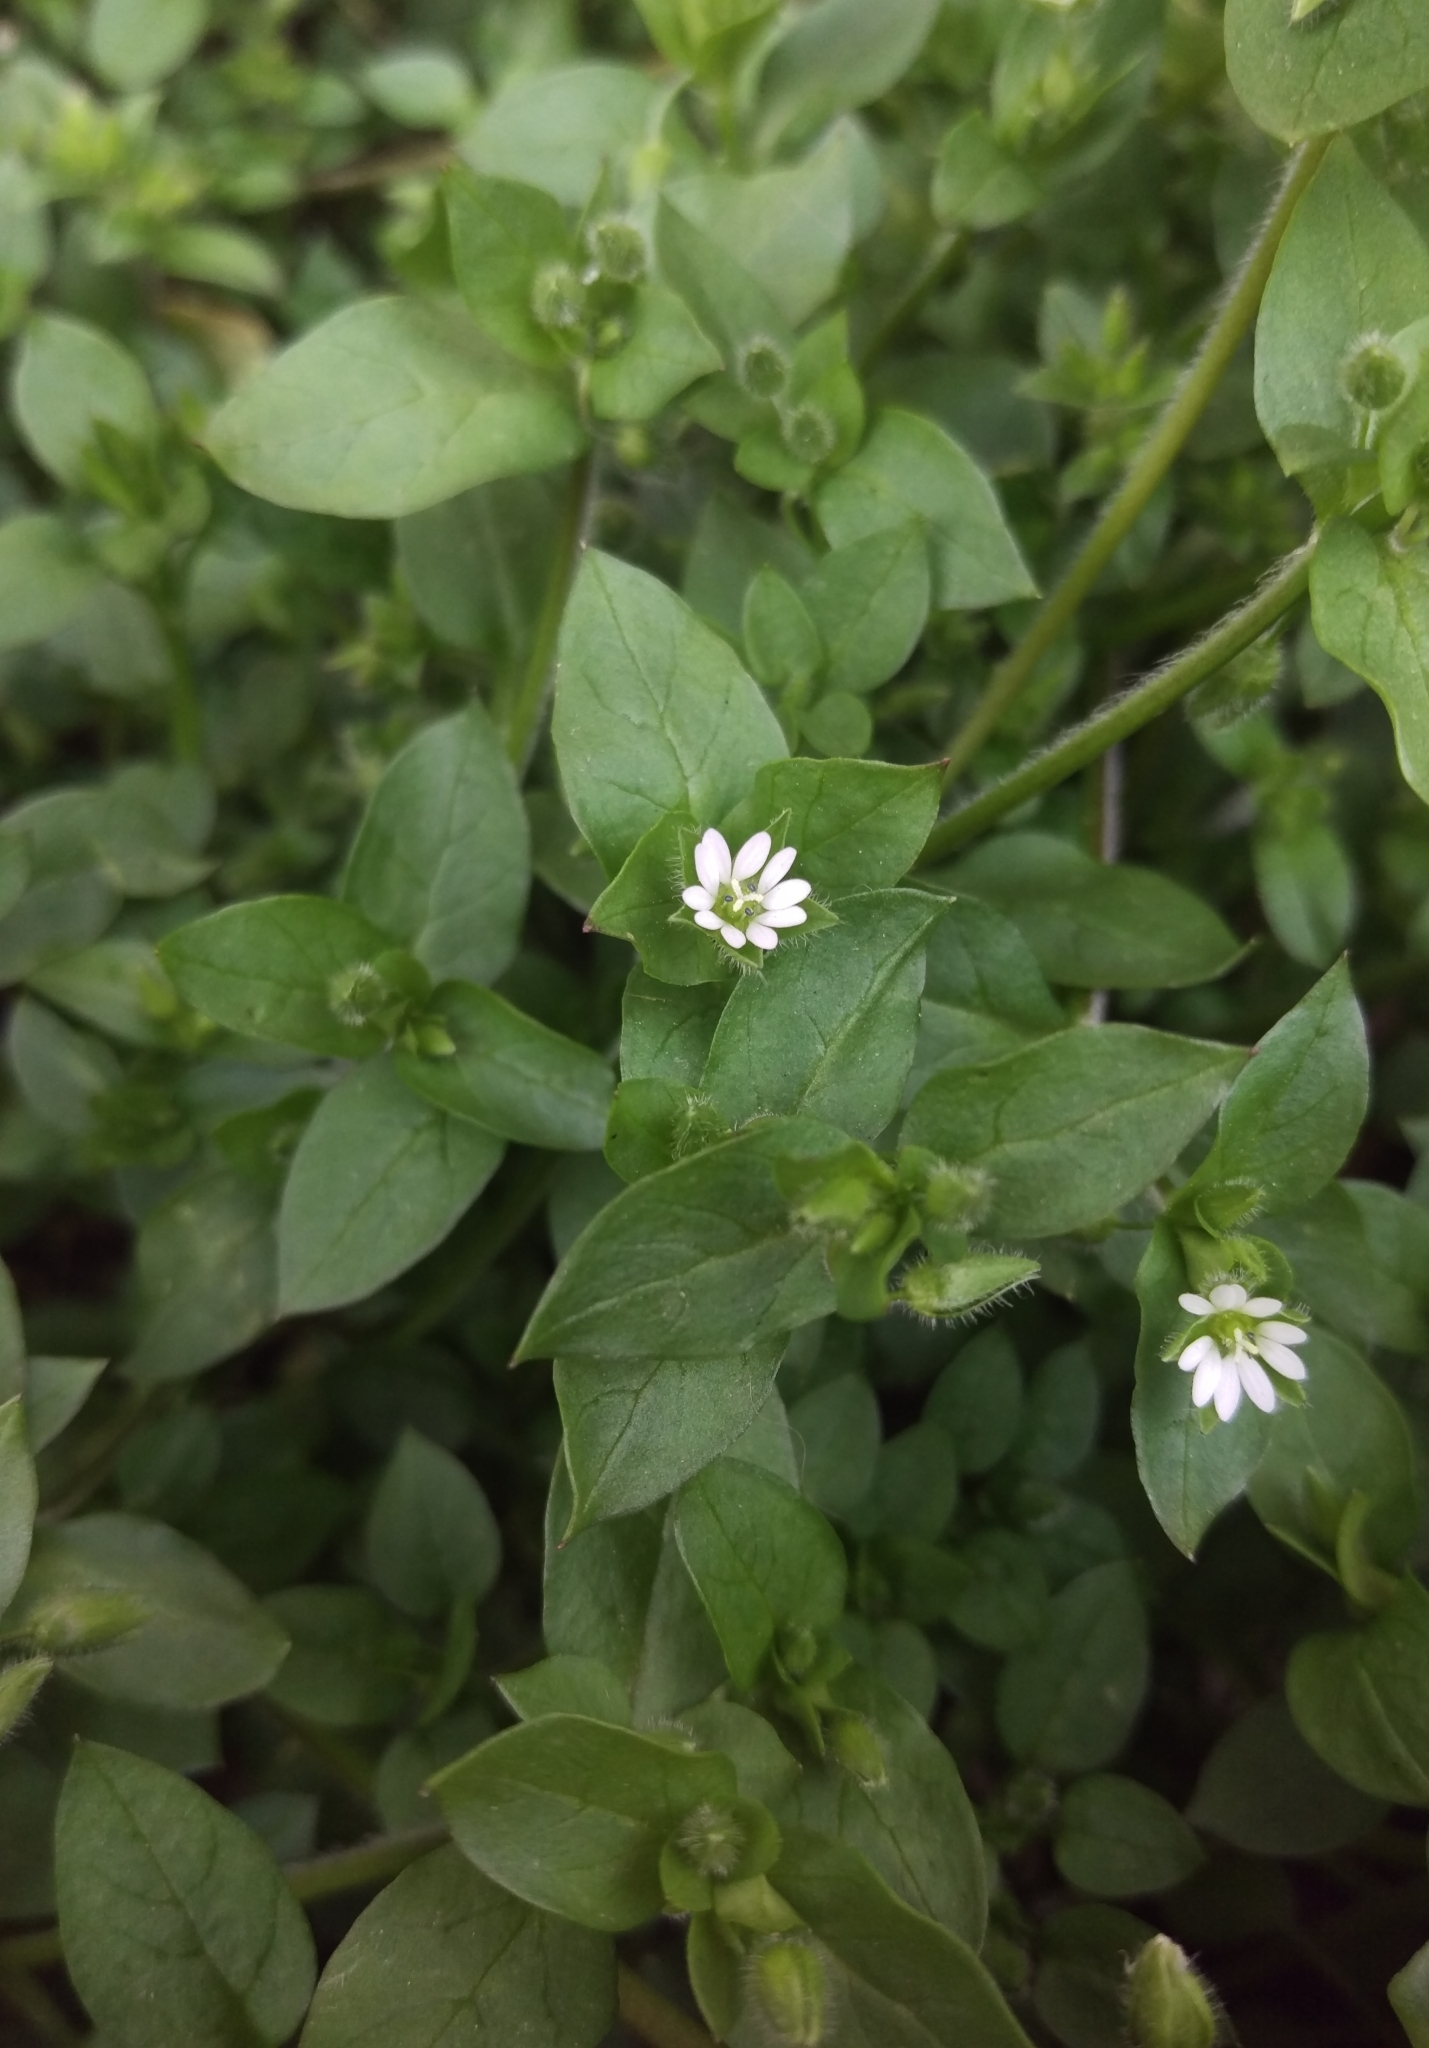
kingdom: Plantae
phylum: Tracheophyta
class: Magnoliopsida
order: Caryophyllales
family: Caryophyllaceae
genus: Stellaria
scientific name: Stellaria media
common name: Common chickweed
